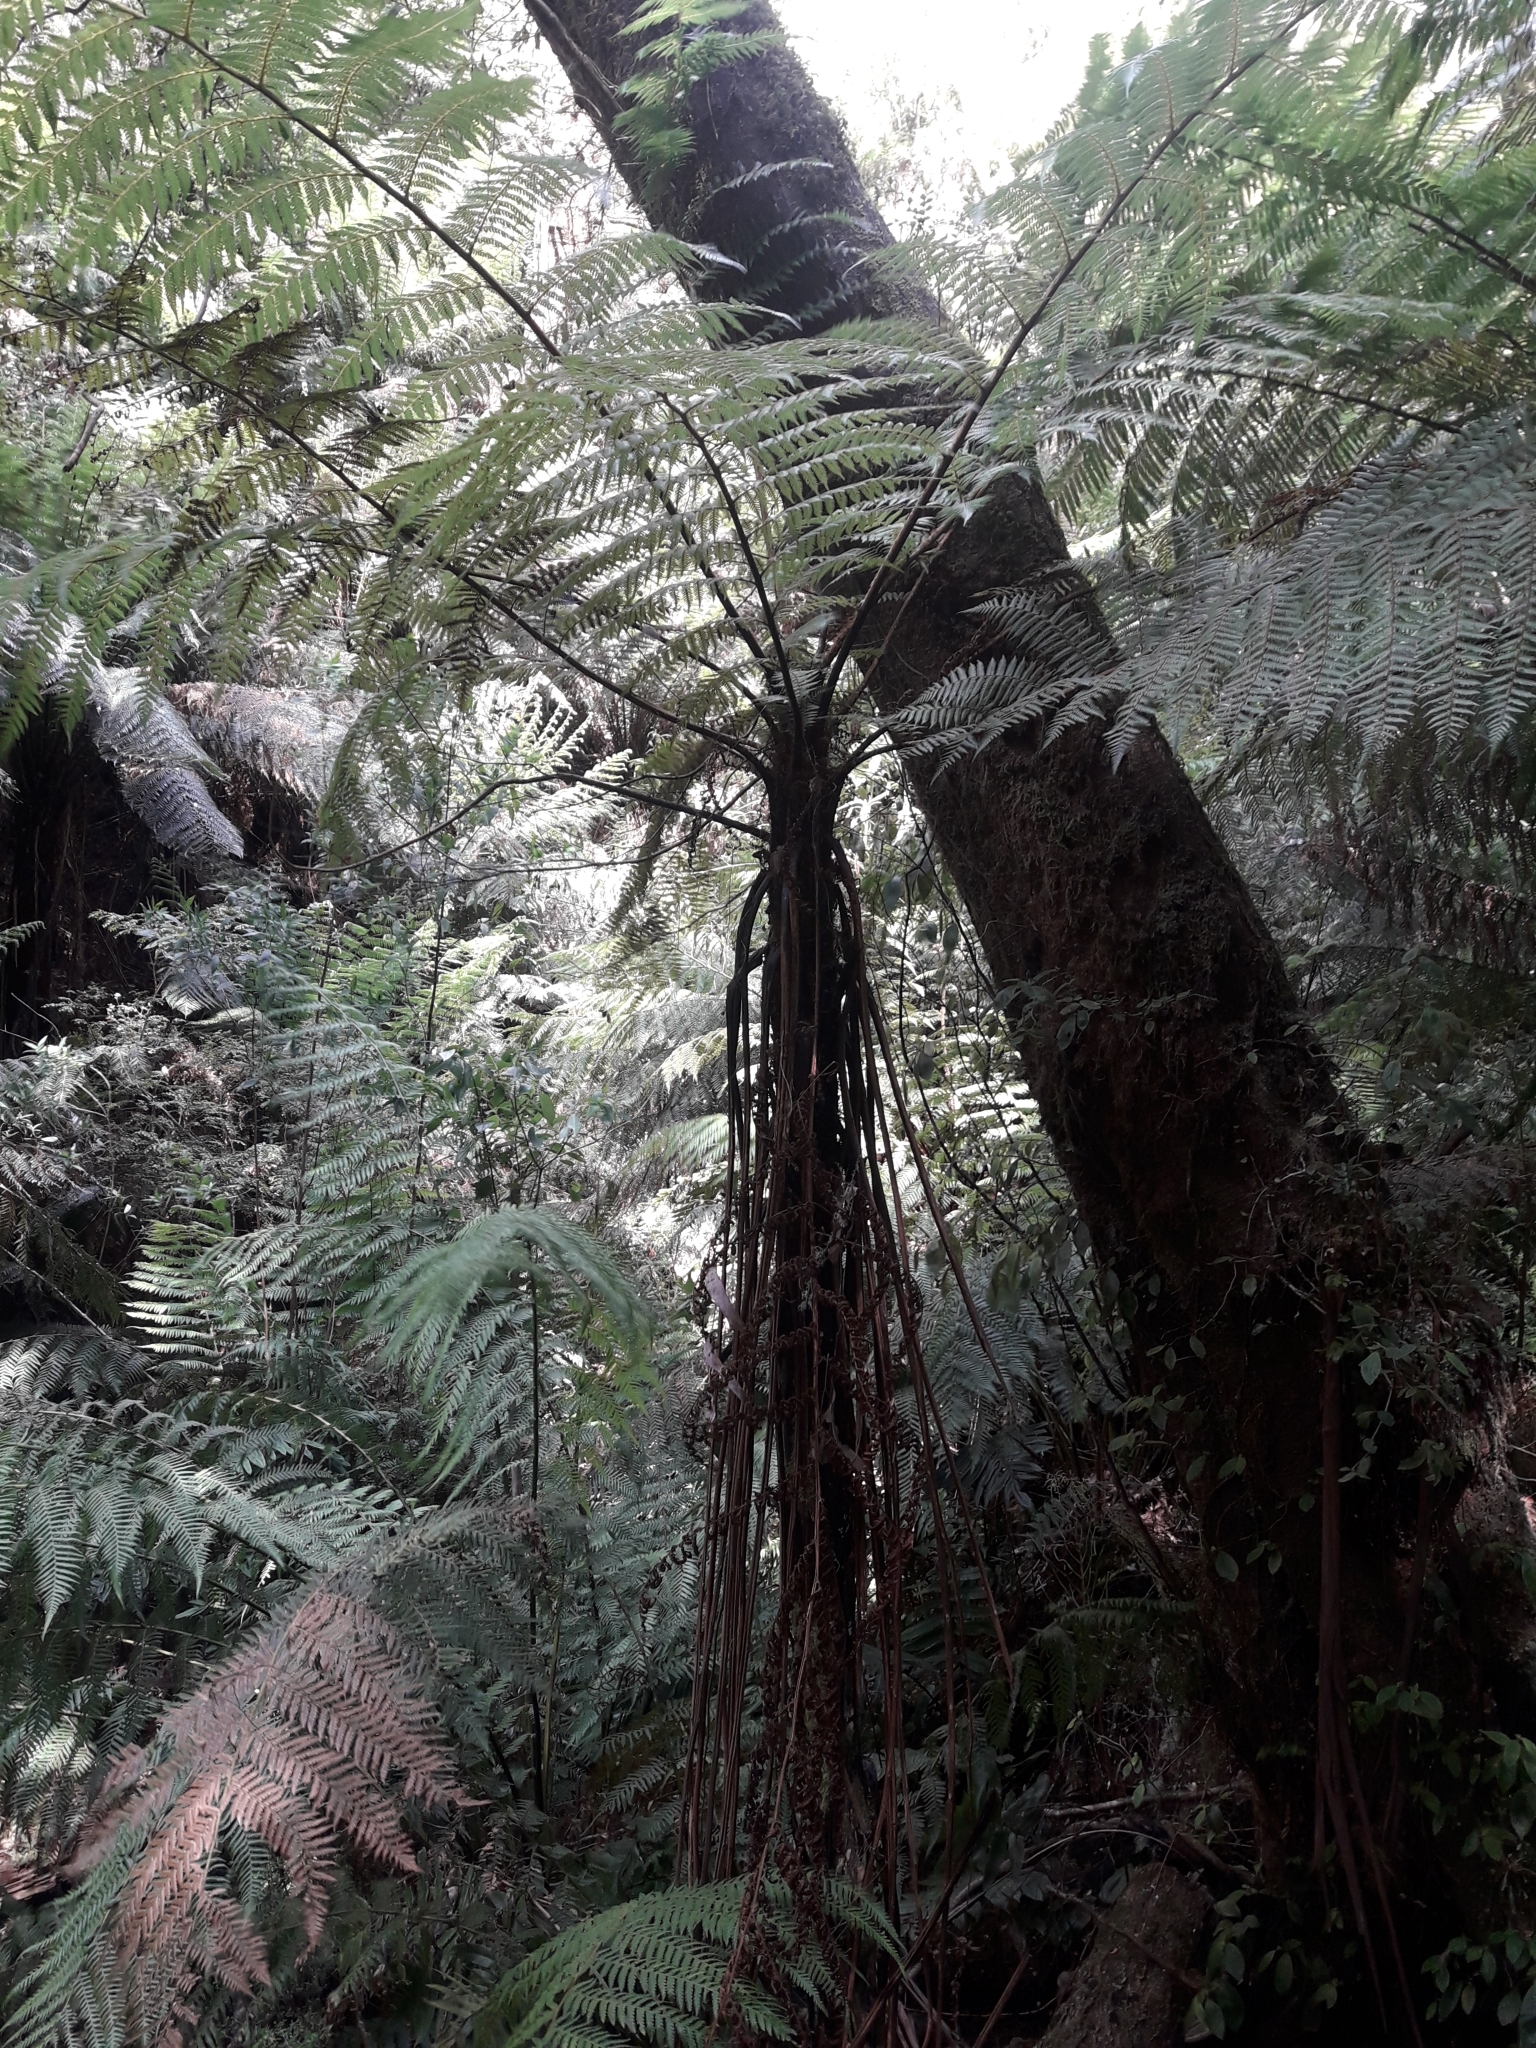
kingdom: Plantae
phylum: Tracheophyta
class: Polypodiopsida
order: Cyatheales
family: Cyatheaceae
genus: Cyathea
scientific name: Cyathea cunninghamii
